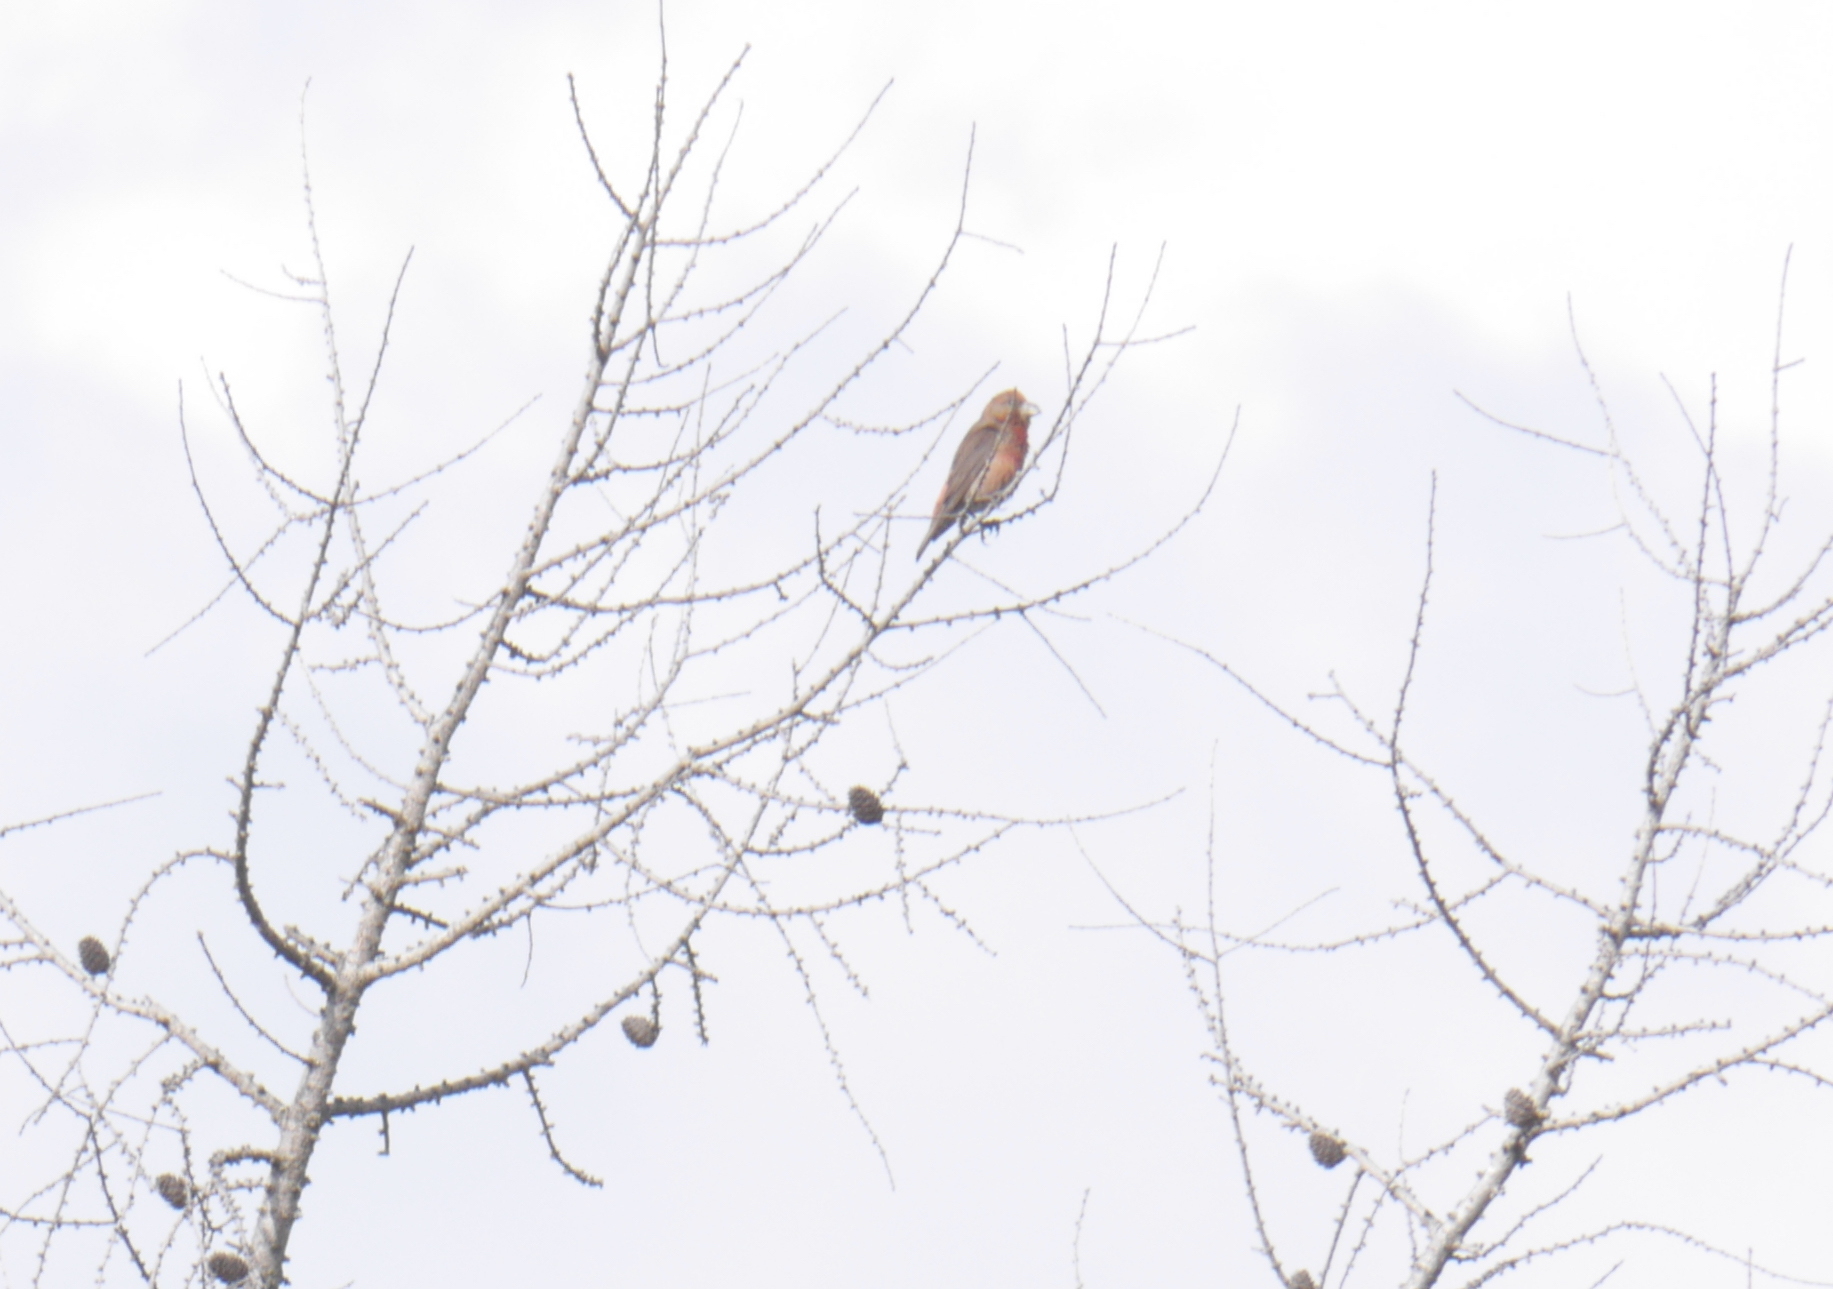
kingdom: Animalia
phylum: Chordata
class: Aves
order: Passeriformes
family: Fringillidae
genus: Loxia
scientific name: Loxia curvirostra
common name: Red crossbill
